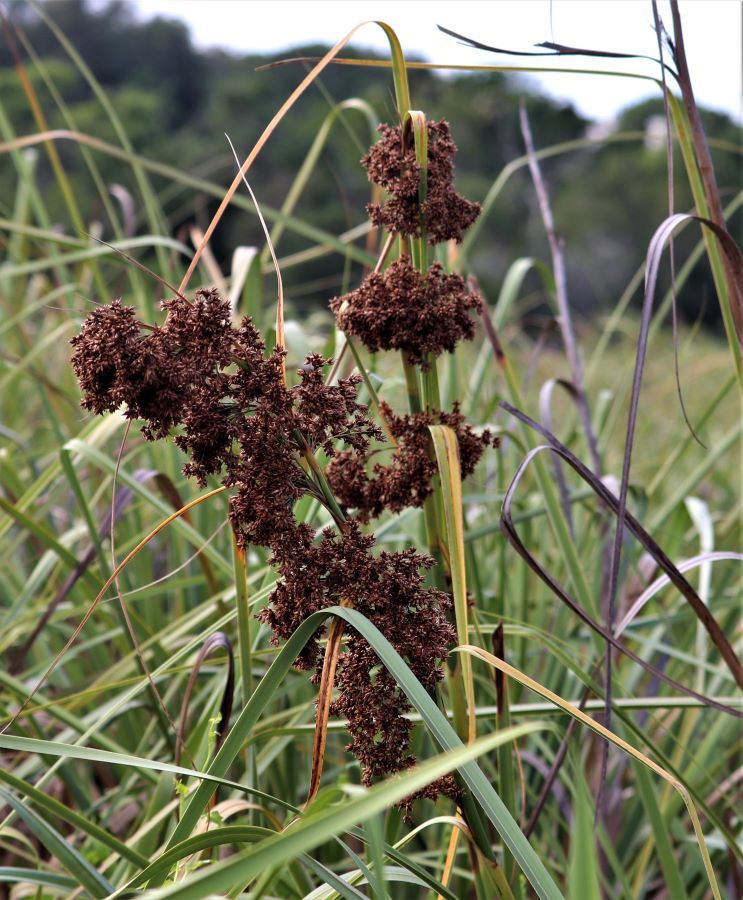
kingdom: Plantae
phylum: Tracheophyta
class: Liliopsida
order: Poales
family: Cyperaceae
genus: Cladium
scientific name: Cladium mariscus
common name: Great fen-sedge
